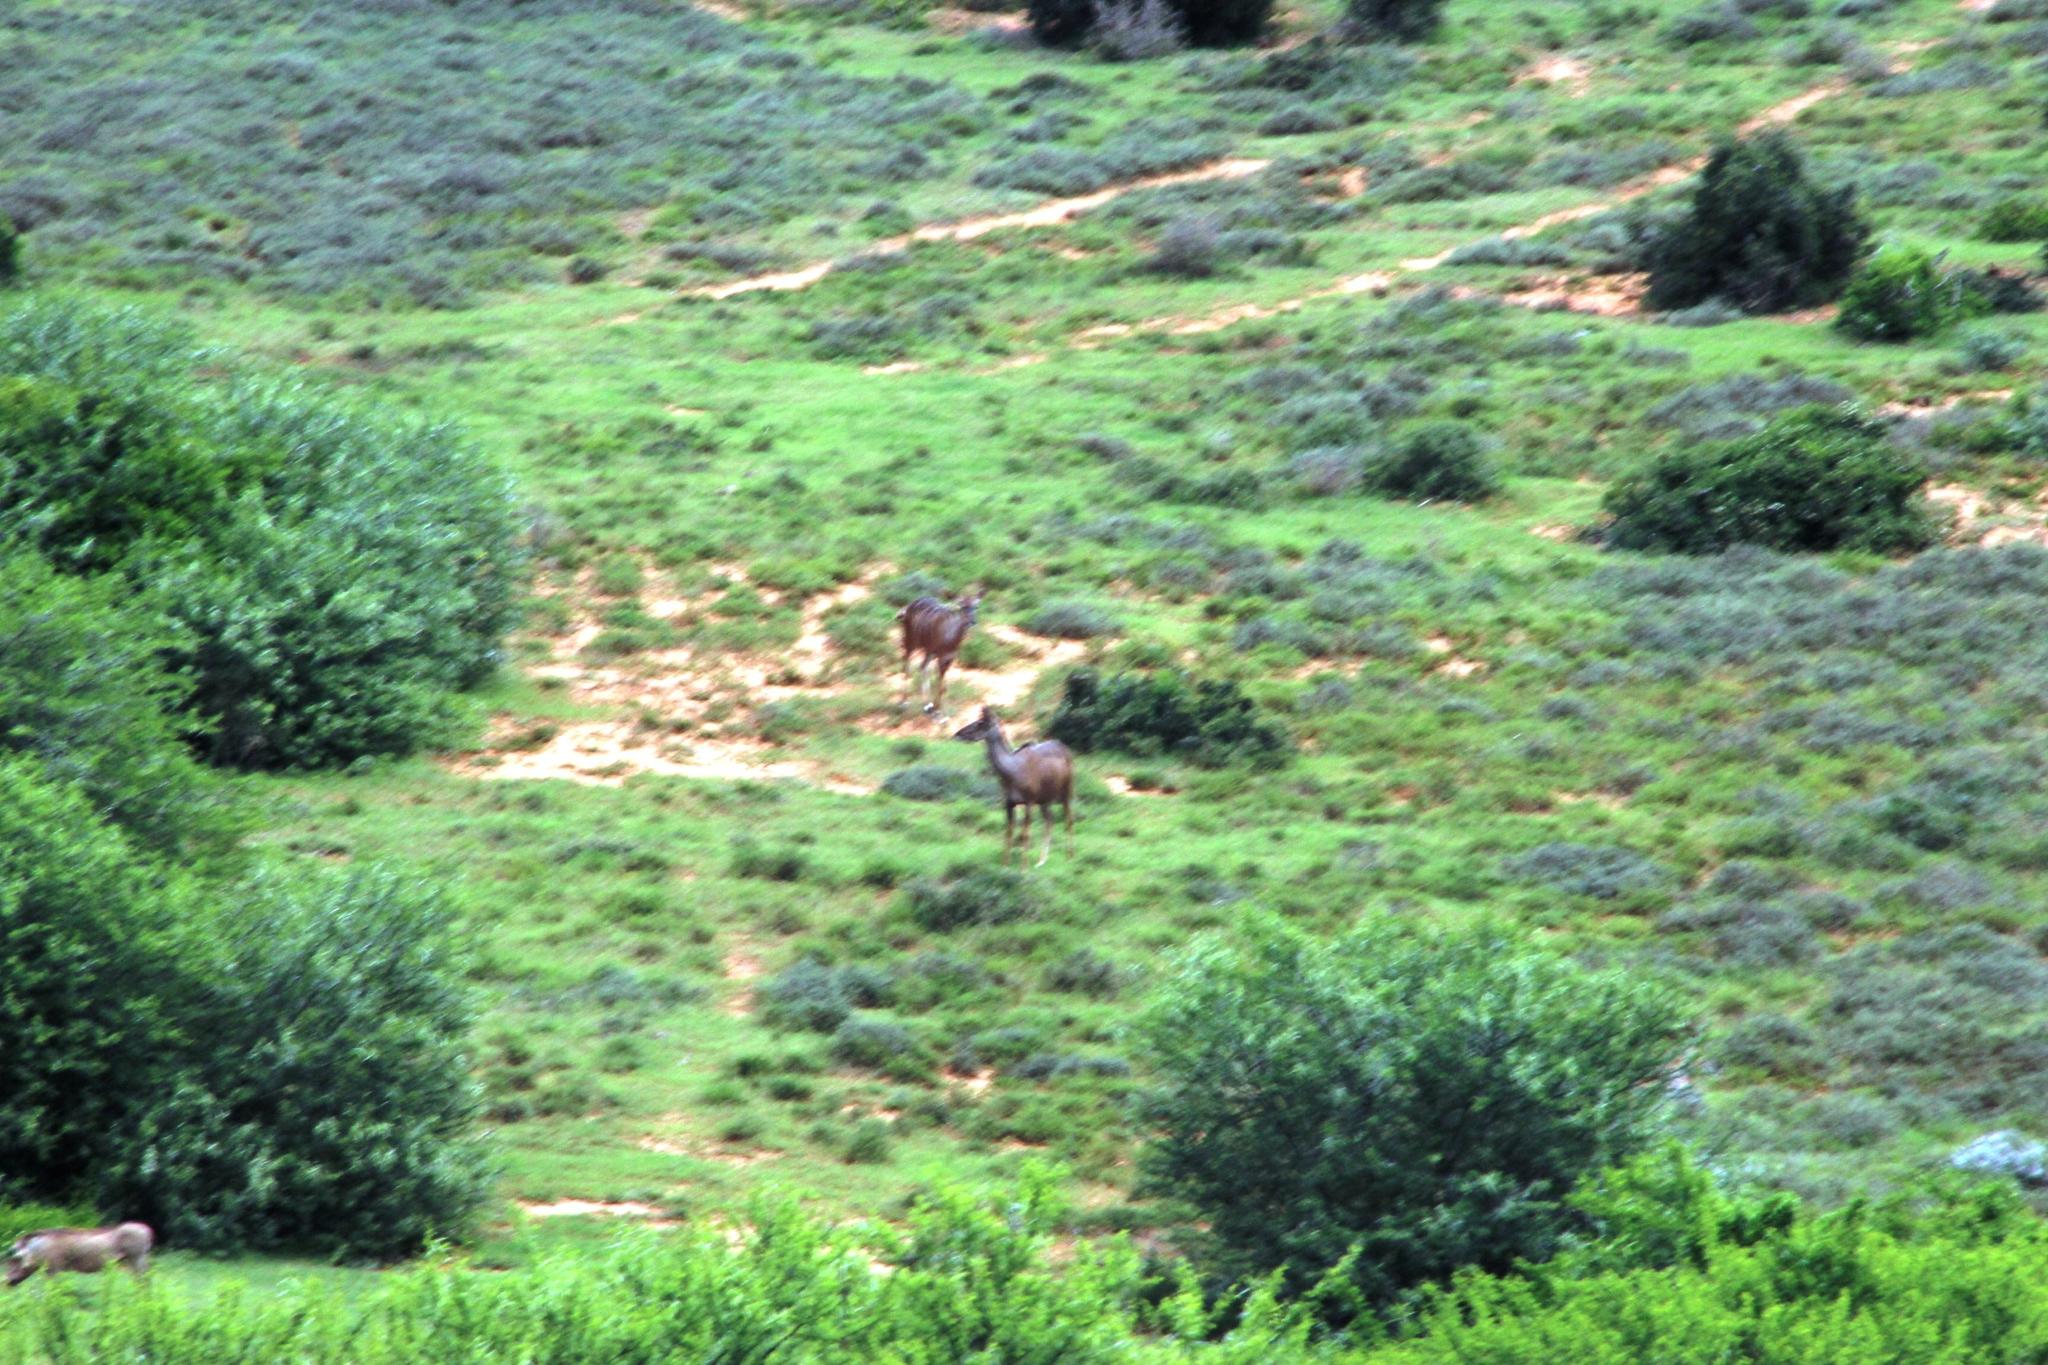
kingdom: Animalia
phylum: Chordata
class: Mammalia
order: Artiodactyla
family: Bovidae
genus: Tragelaphus
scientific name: Tragelaphus strepsiceros
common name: Greater kudu
